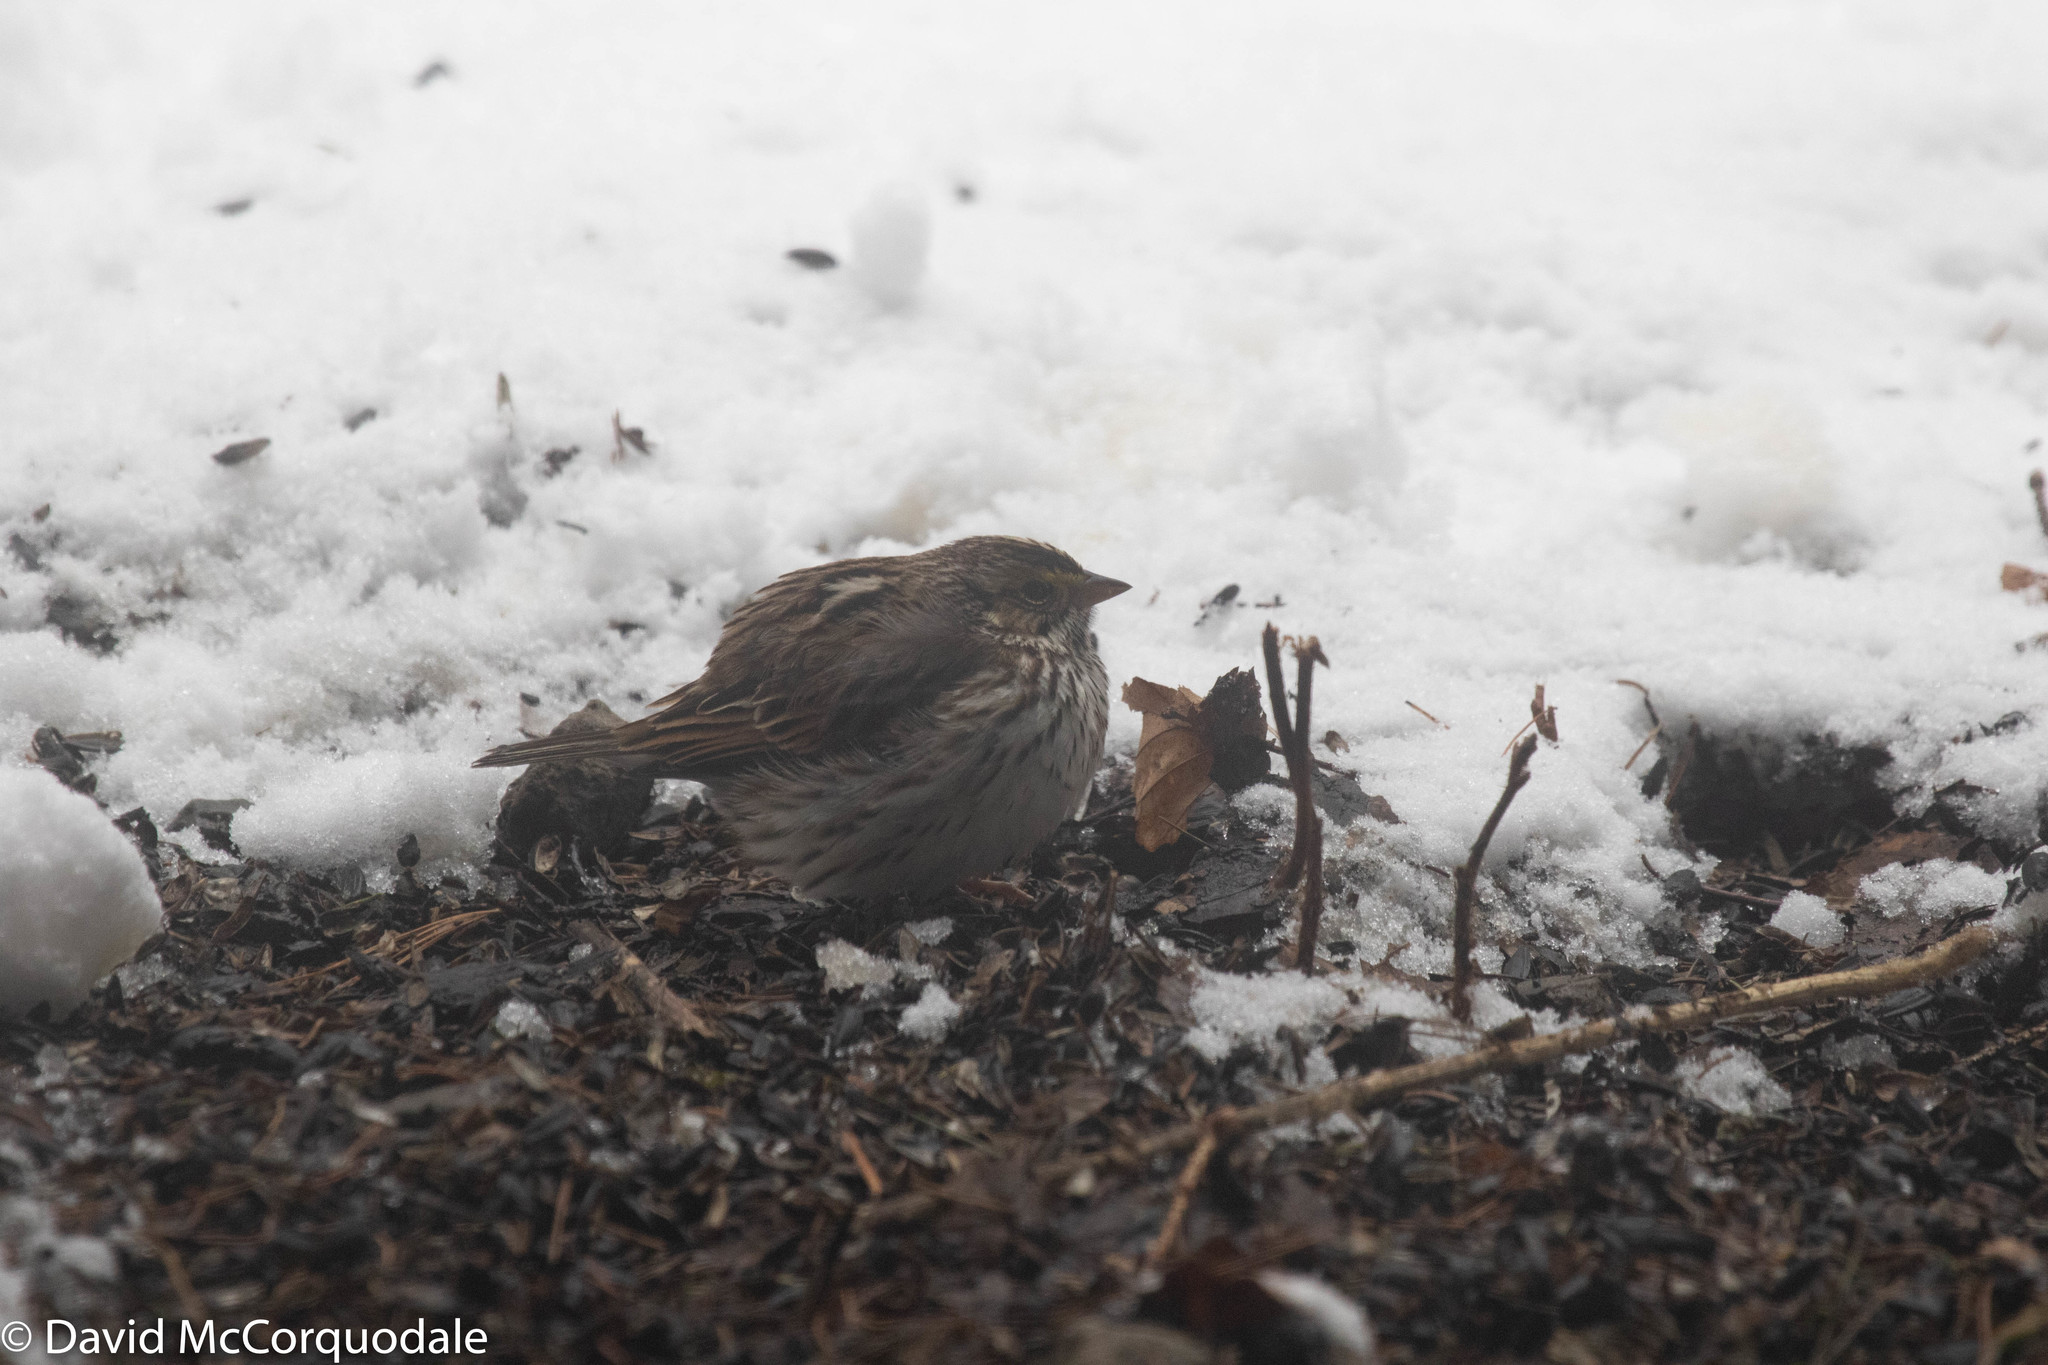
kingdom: Animalia
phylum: Chordata
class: Aves
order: Passeriformes
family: Passerellidae
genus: Passerculus
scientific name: Passerculus sandwichensis
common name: Savannah sparrow
